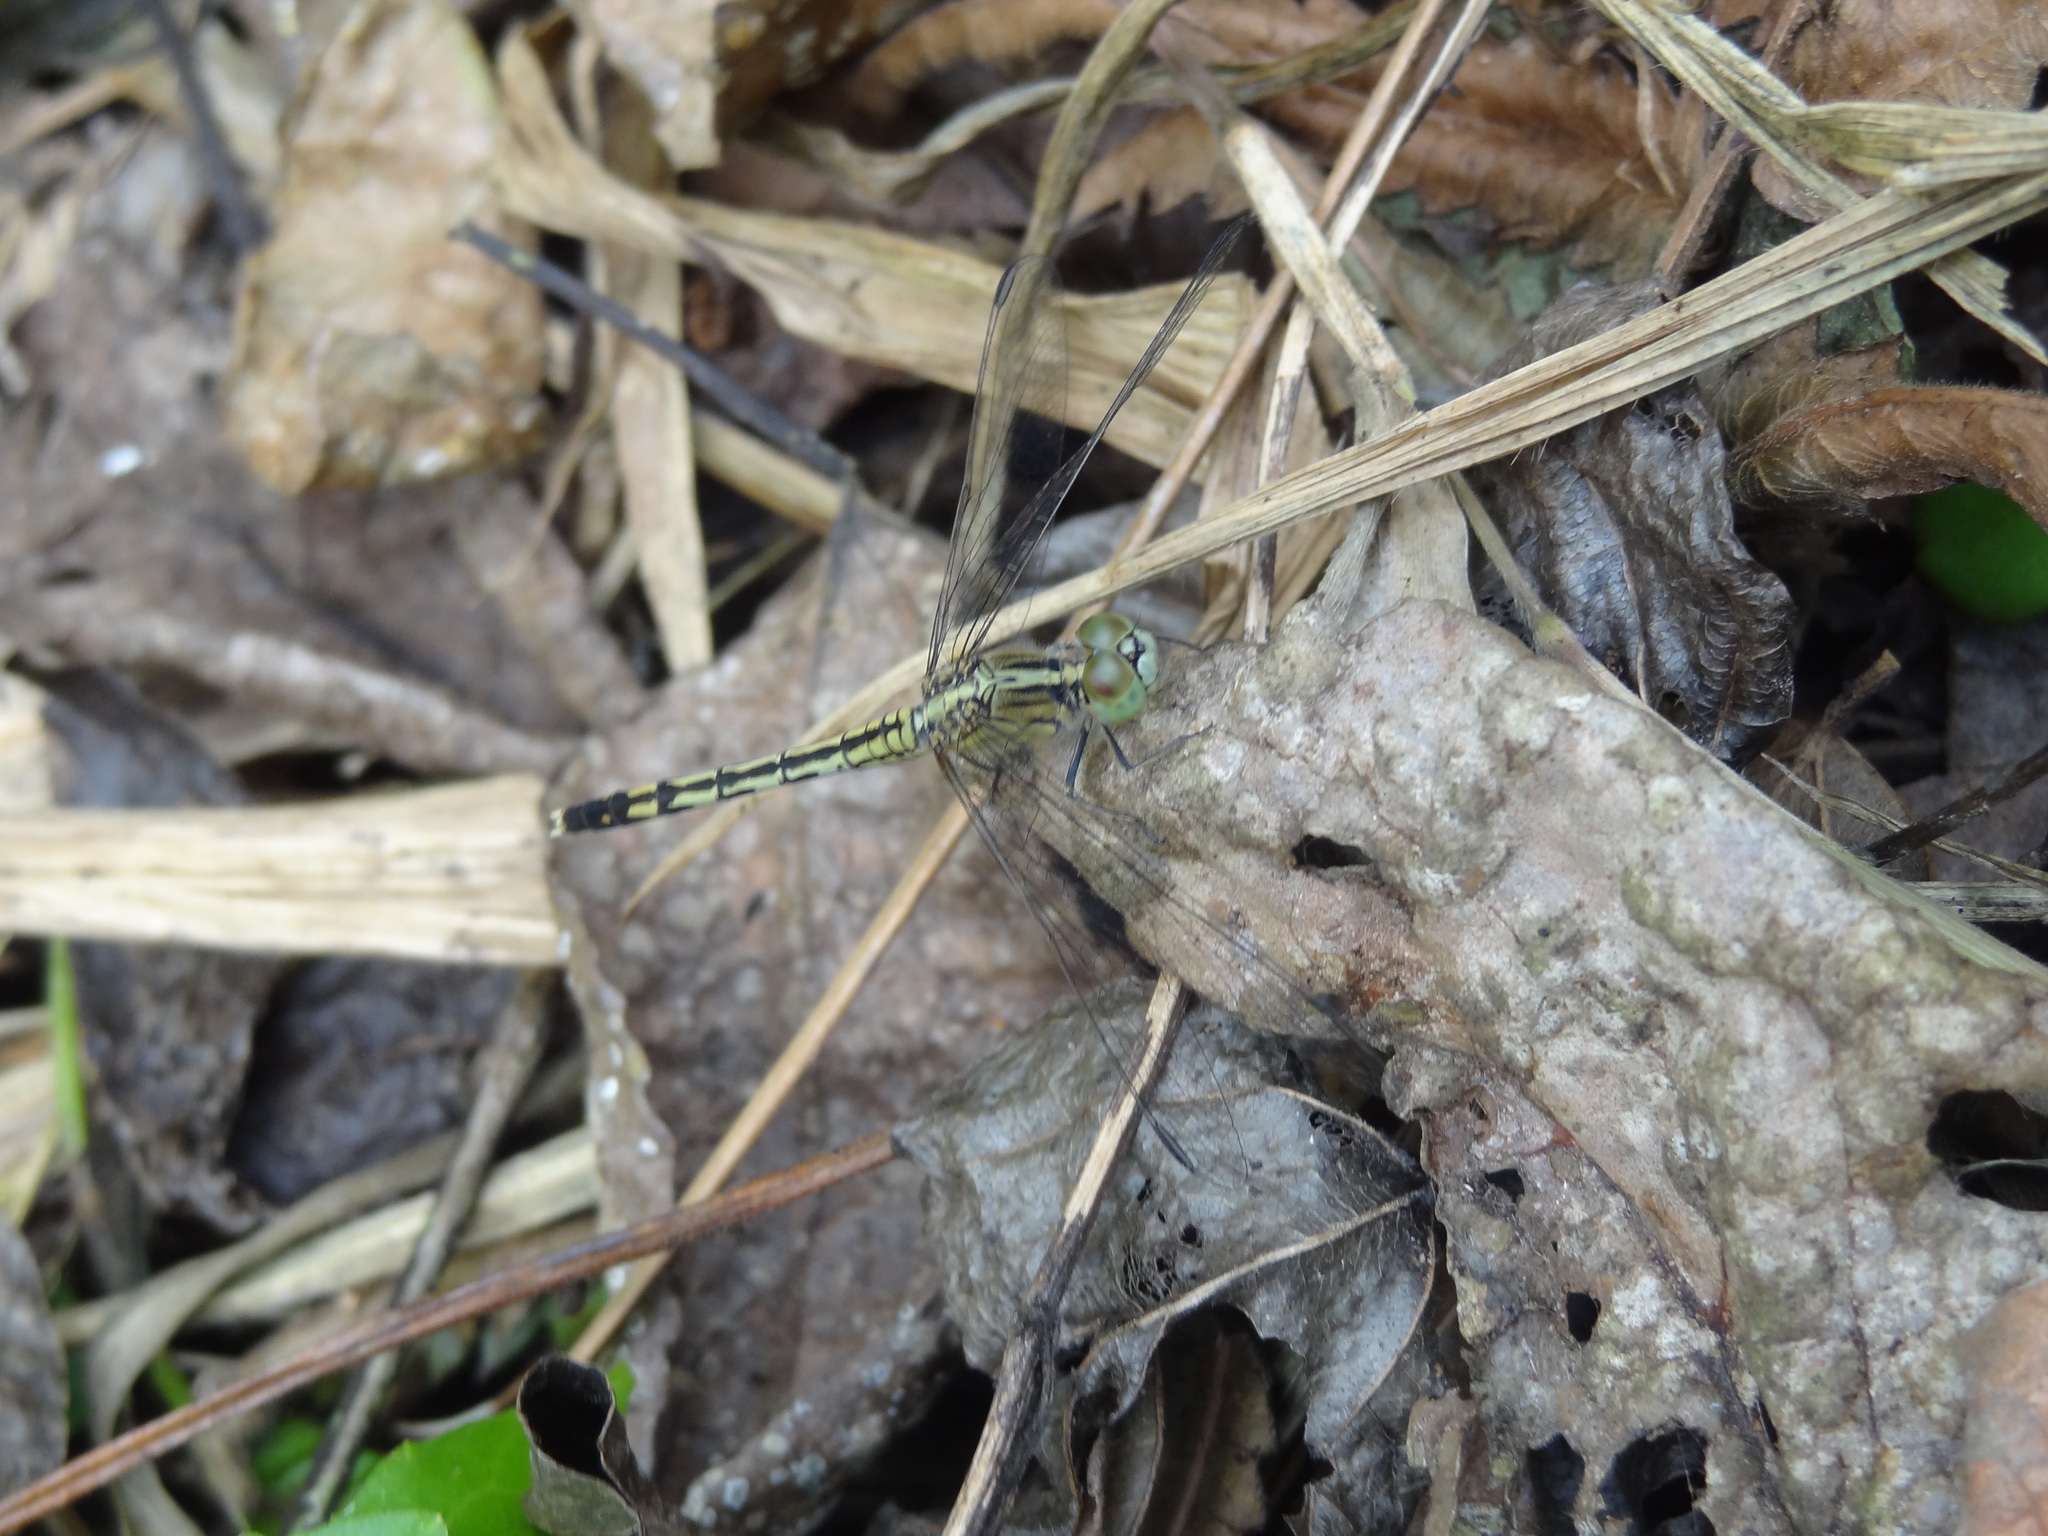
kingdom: Animalia
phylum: Arthropoda
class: Insecta
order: Odonata
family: Libellulidae
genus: Diplacodes
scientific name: Diplacodes trivialis
